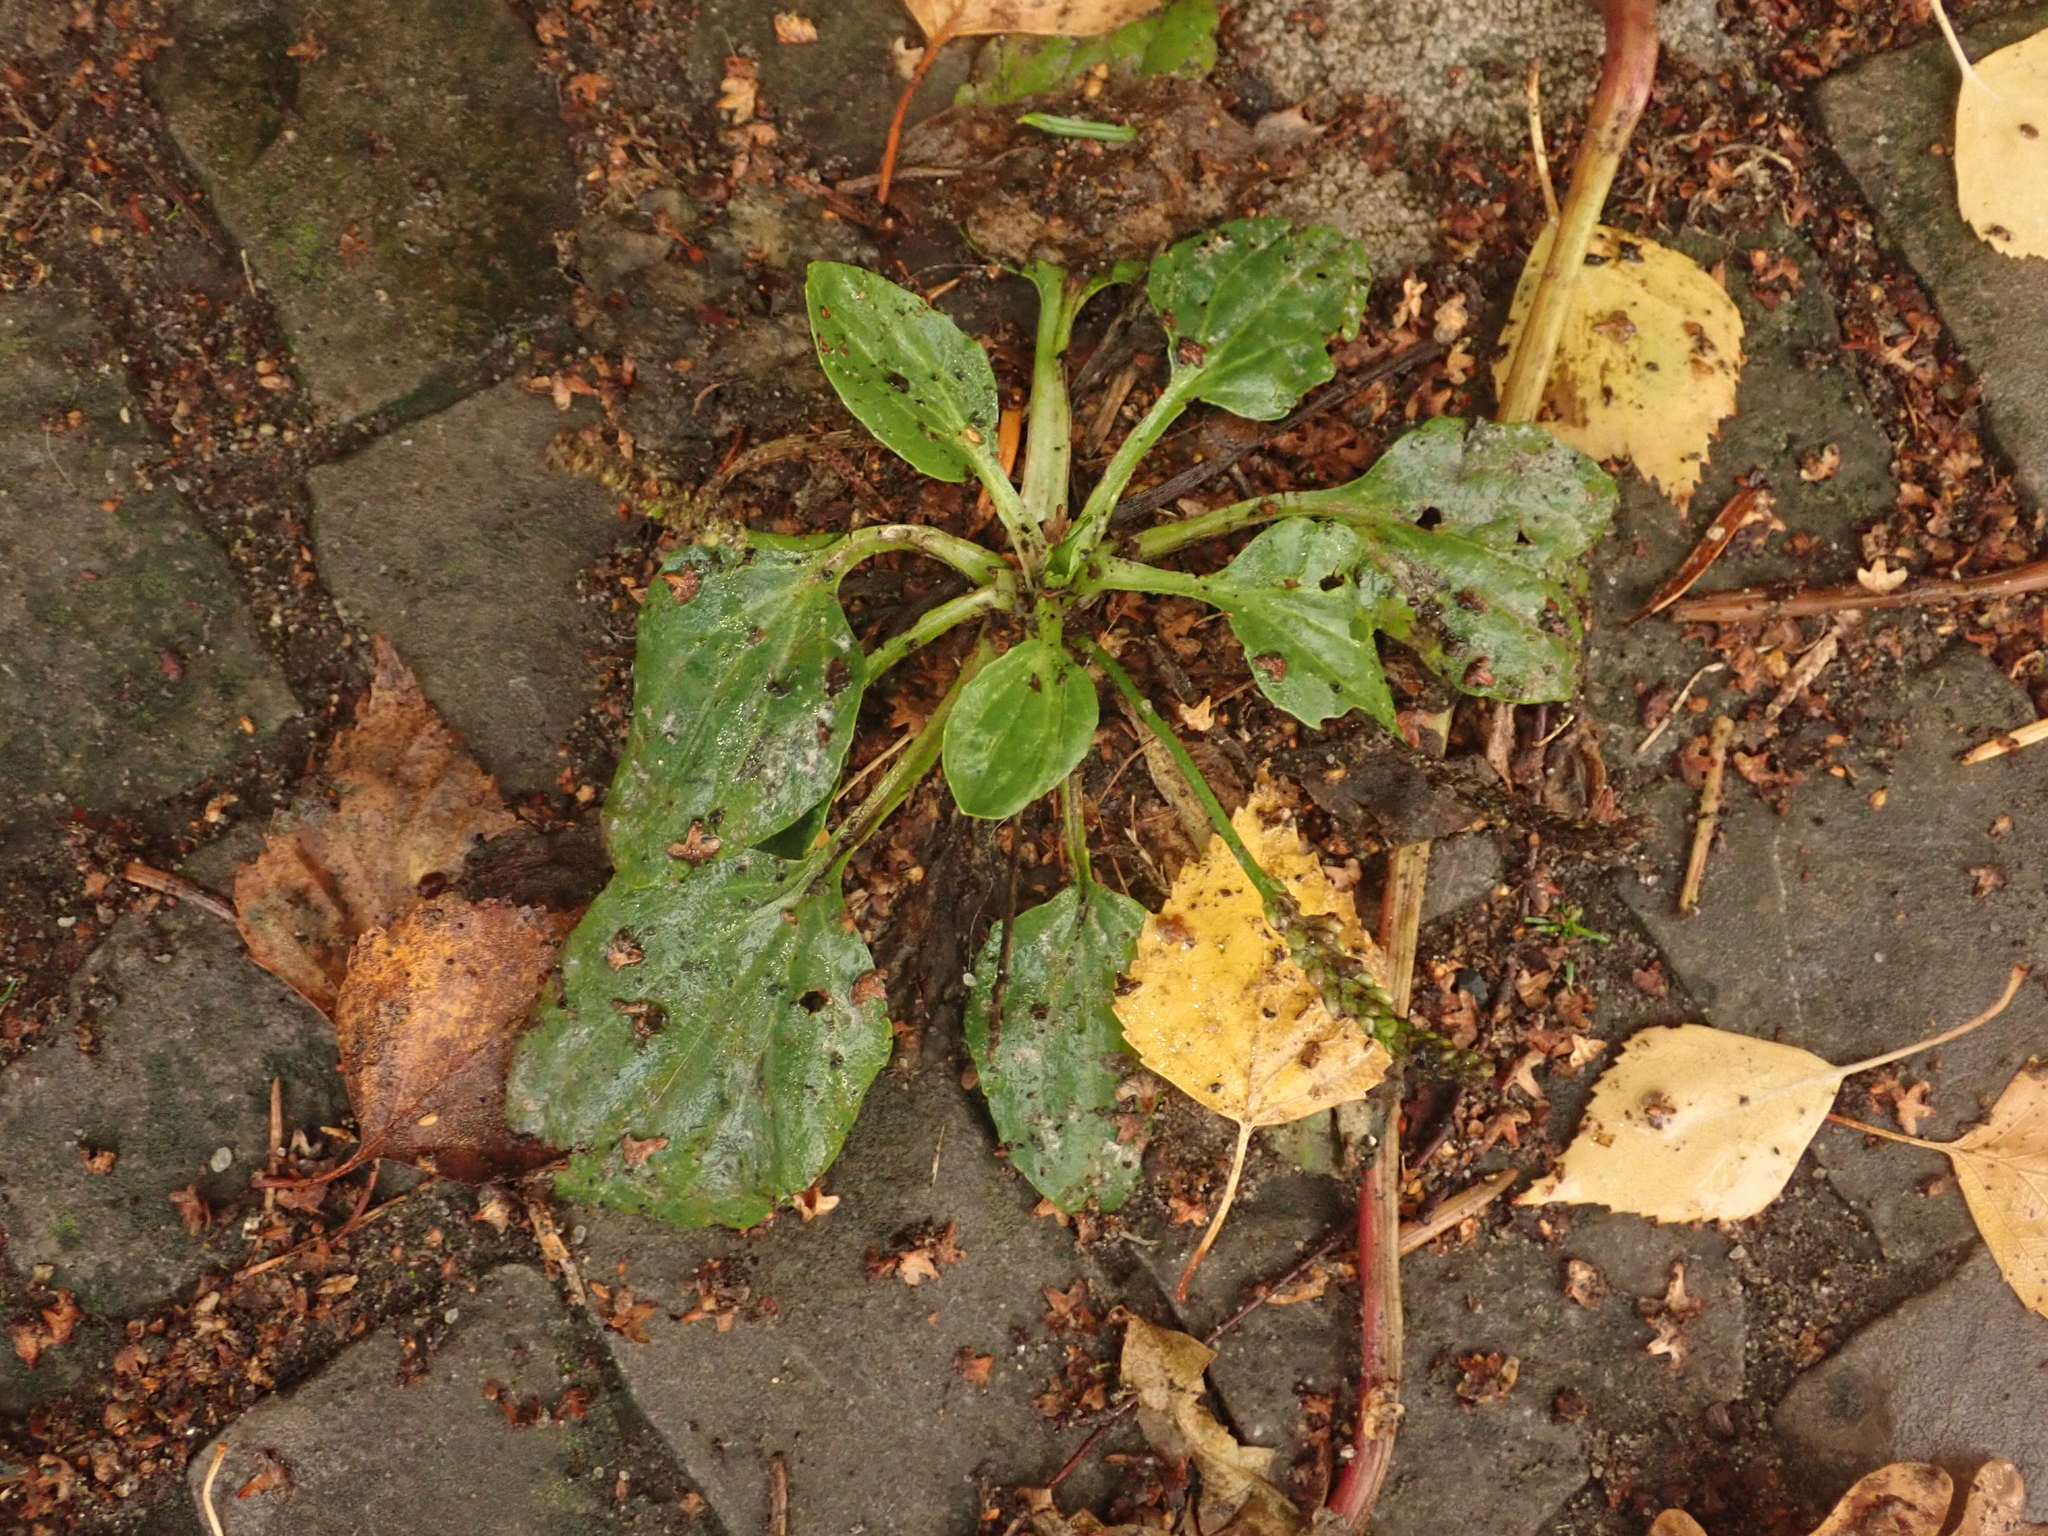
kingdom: Plantae
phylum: Tracheophyta
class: Magnoliopsida
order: Lamiales
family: Plantaginaceae
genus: Plantago
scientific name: Plantago major
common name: Common plantain
